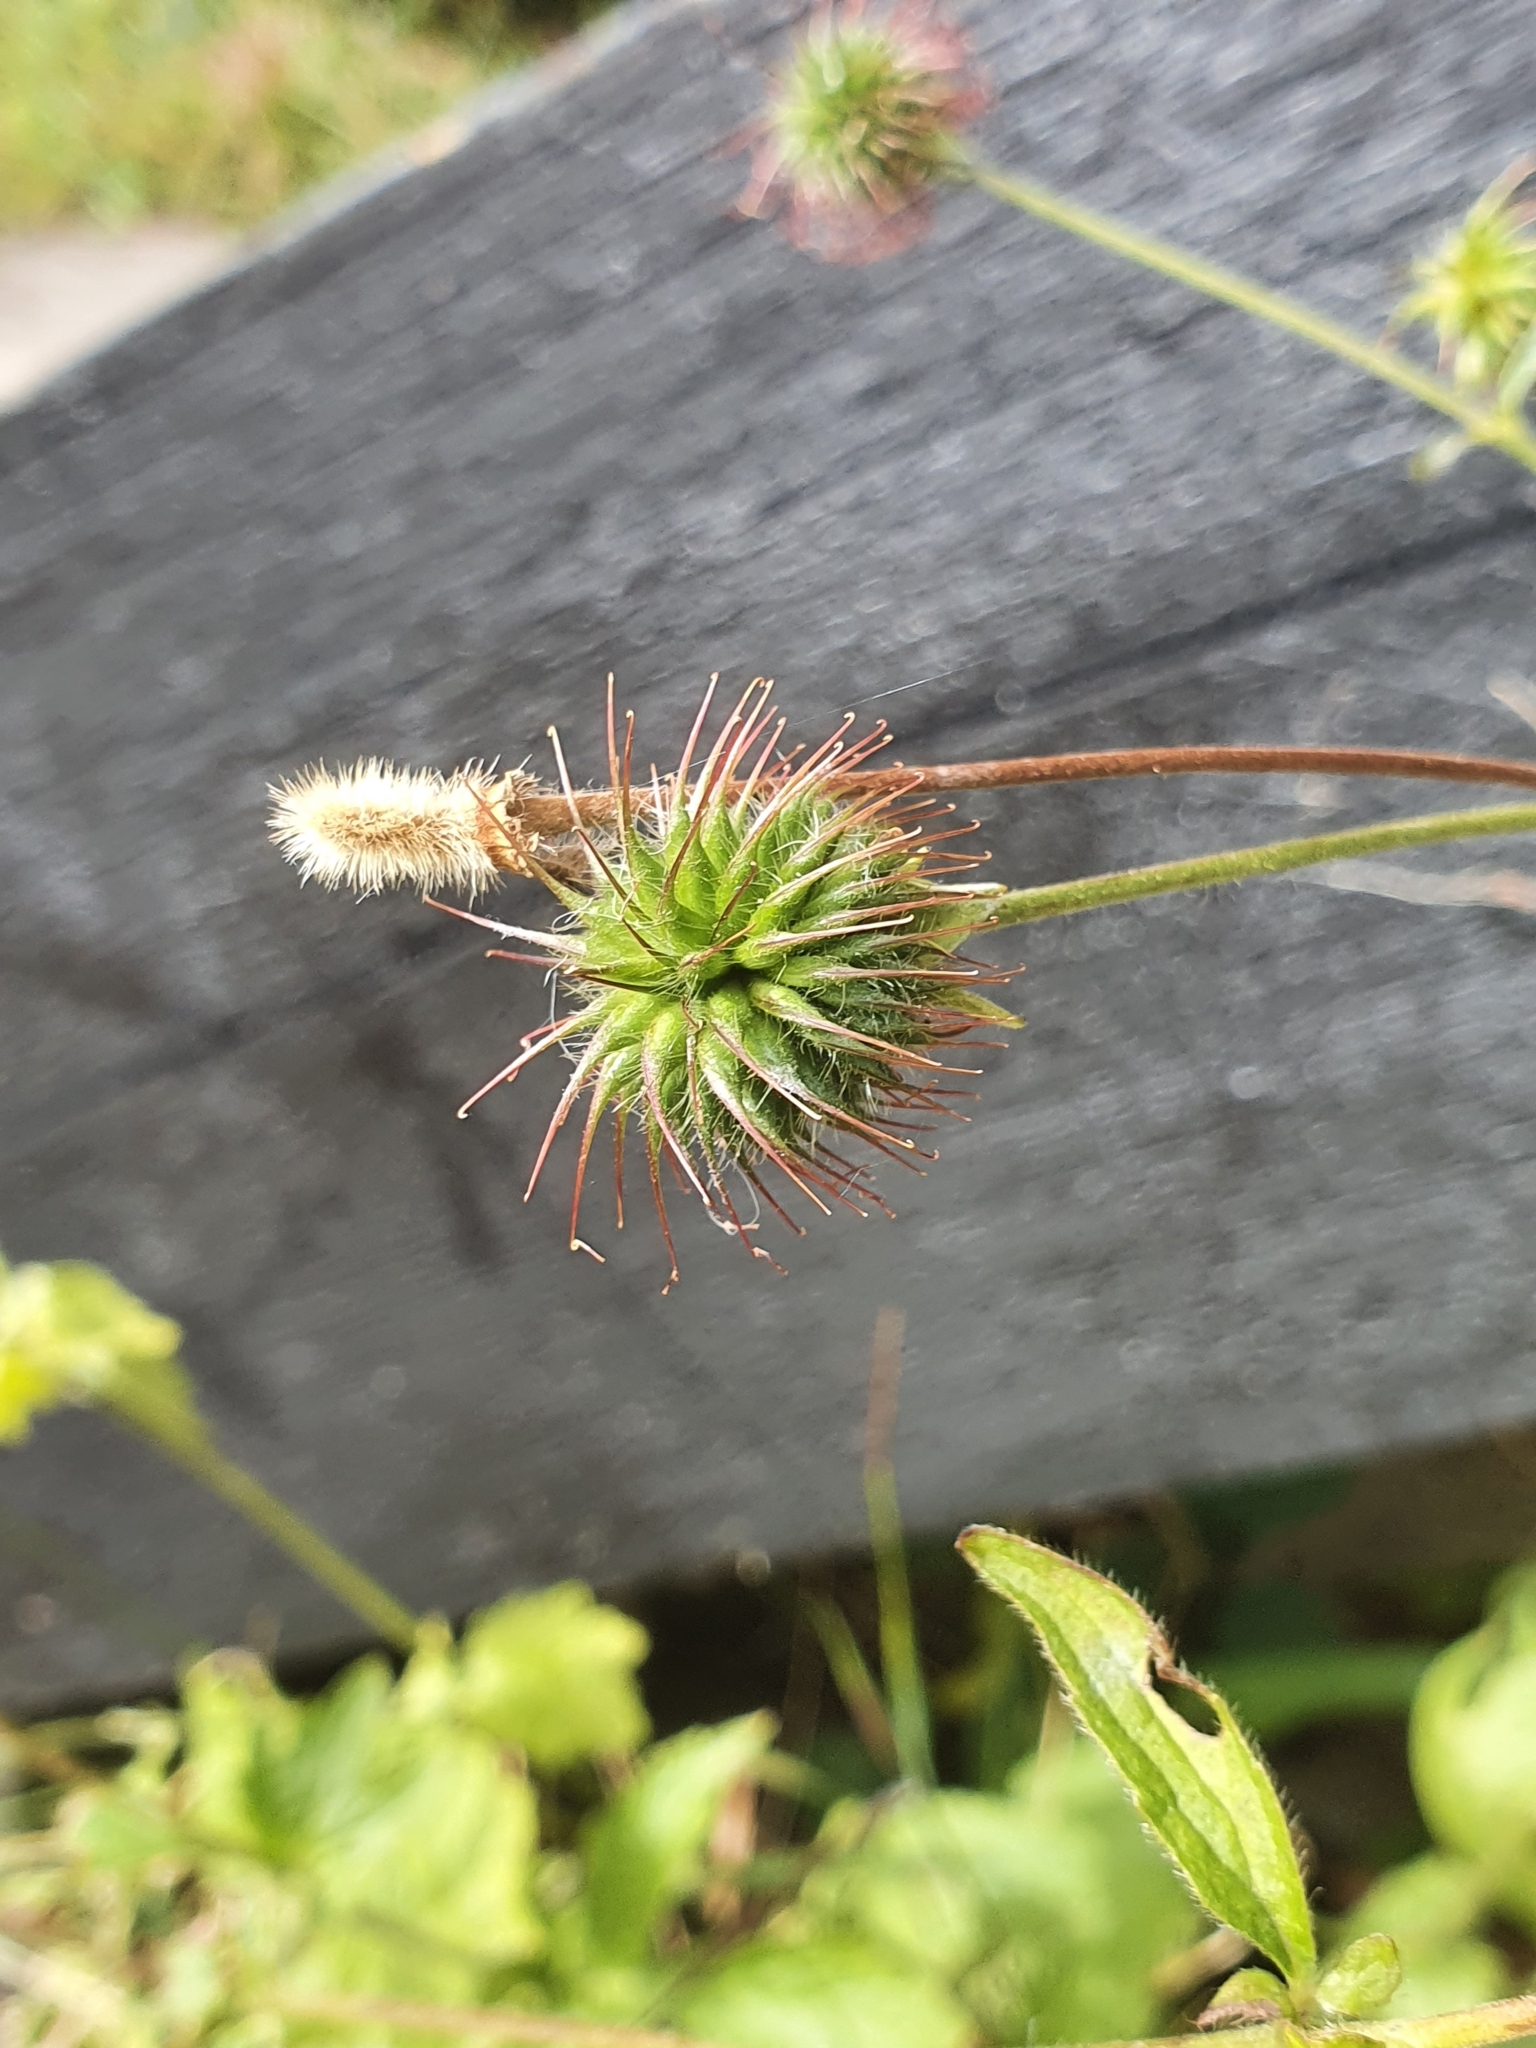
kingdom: Plantae
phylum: Tracheophyta
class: Magnoliopsida
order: Rosales
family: Rosaceae
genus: Geum
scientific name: Geum urbanum
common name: Wood avens
